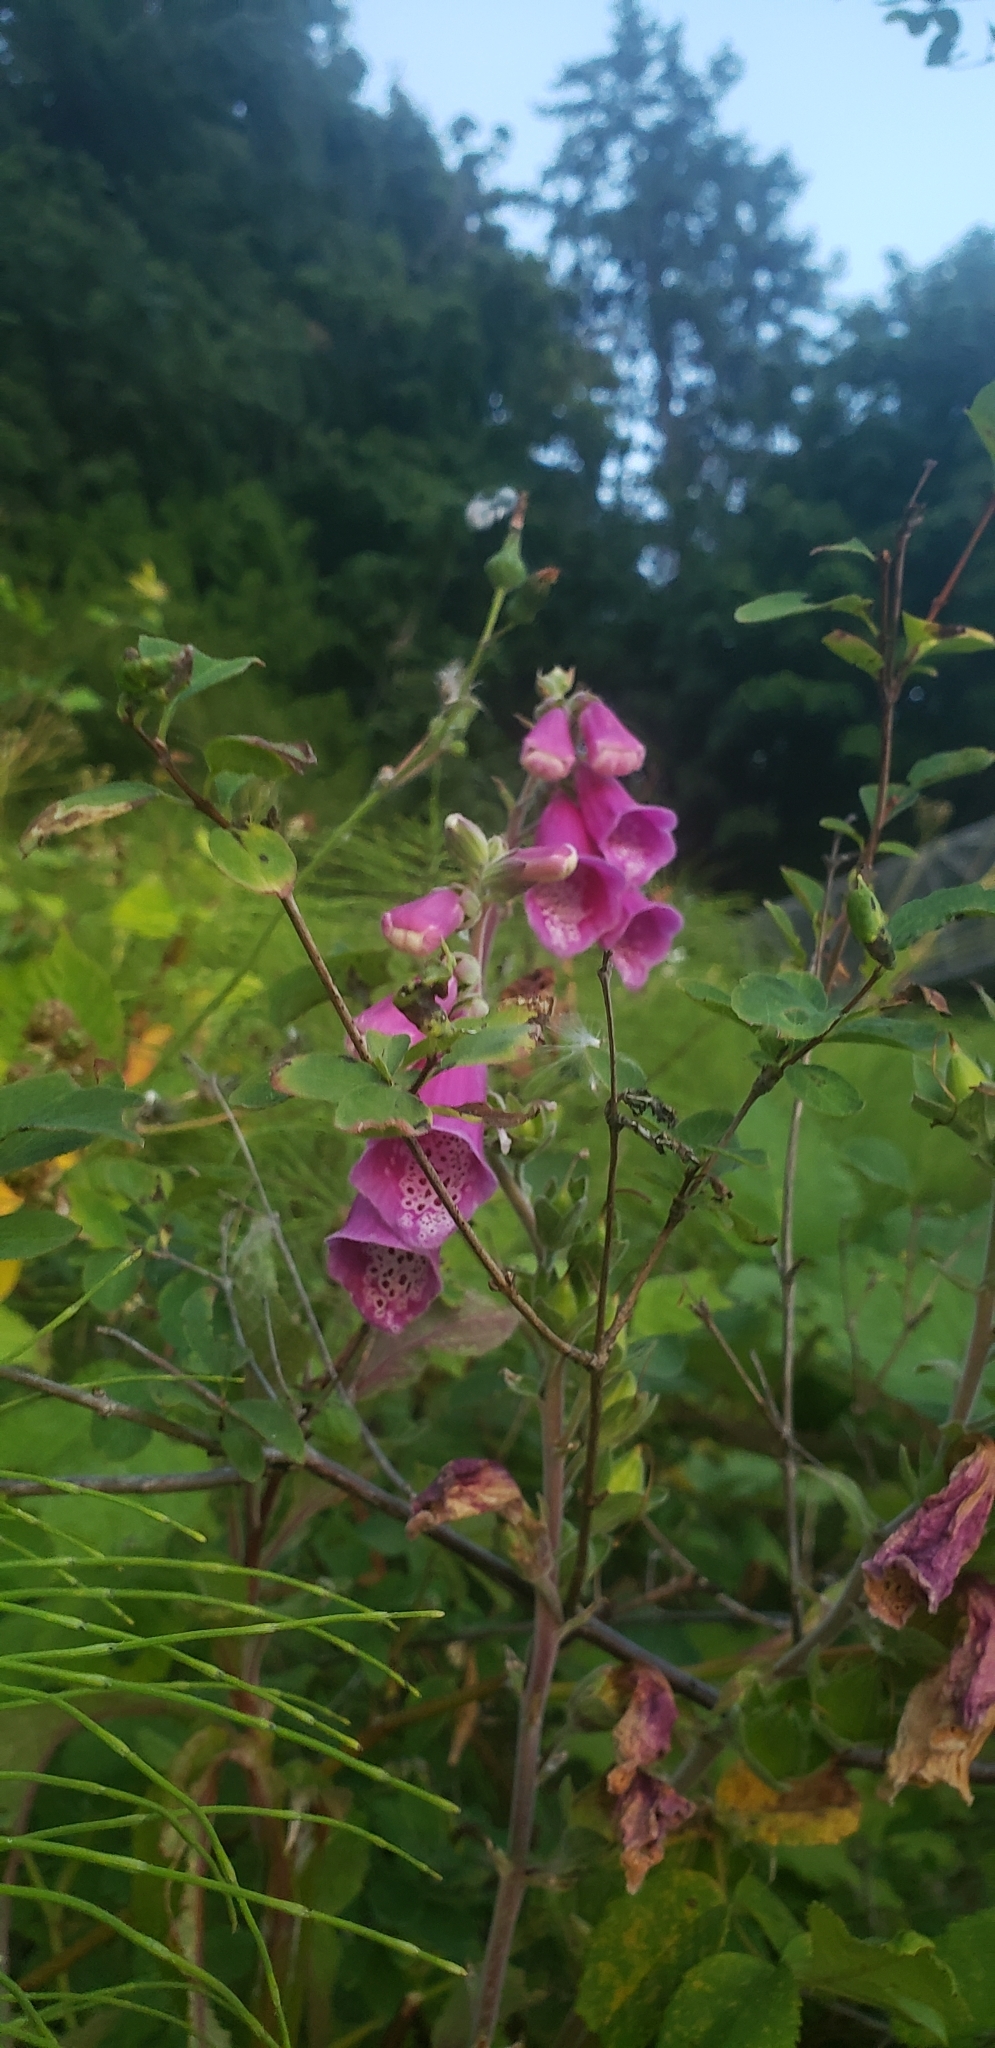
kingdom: Plantae
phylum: Tracheophyta
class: Magnoliopsida
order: Lamiales
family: Plantaginaceae
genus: Digitalis
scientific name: Digitalis purpurea
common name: Foxglove
